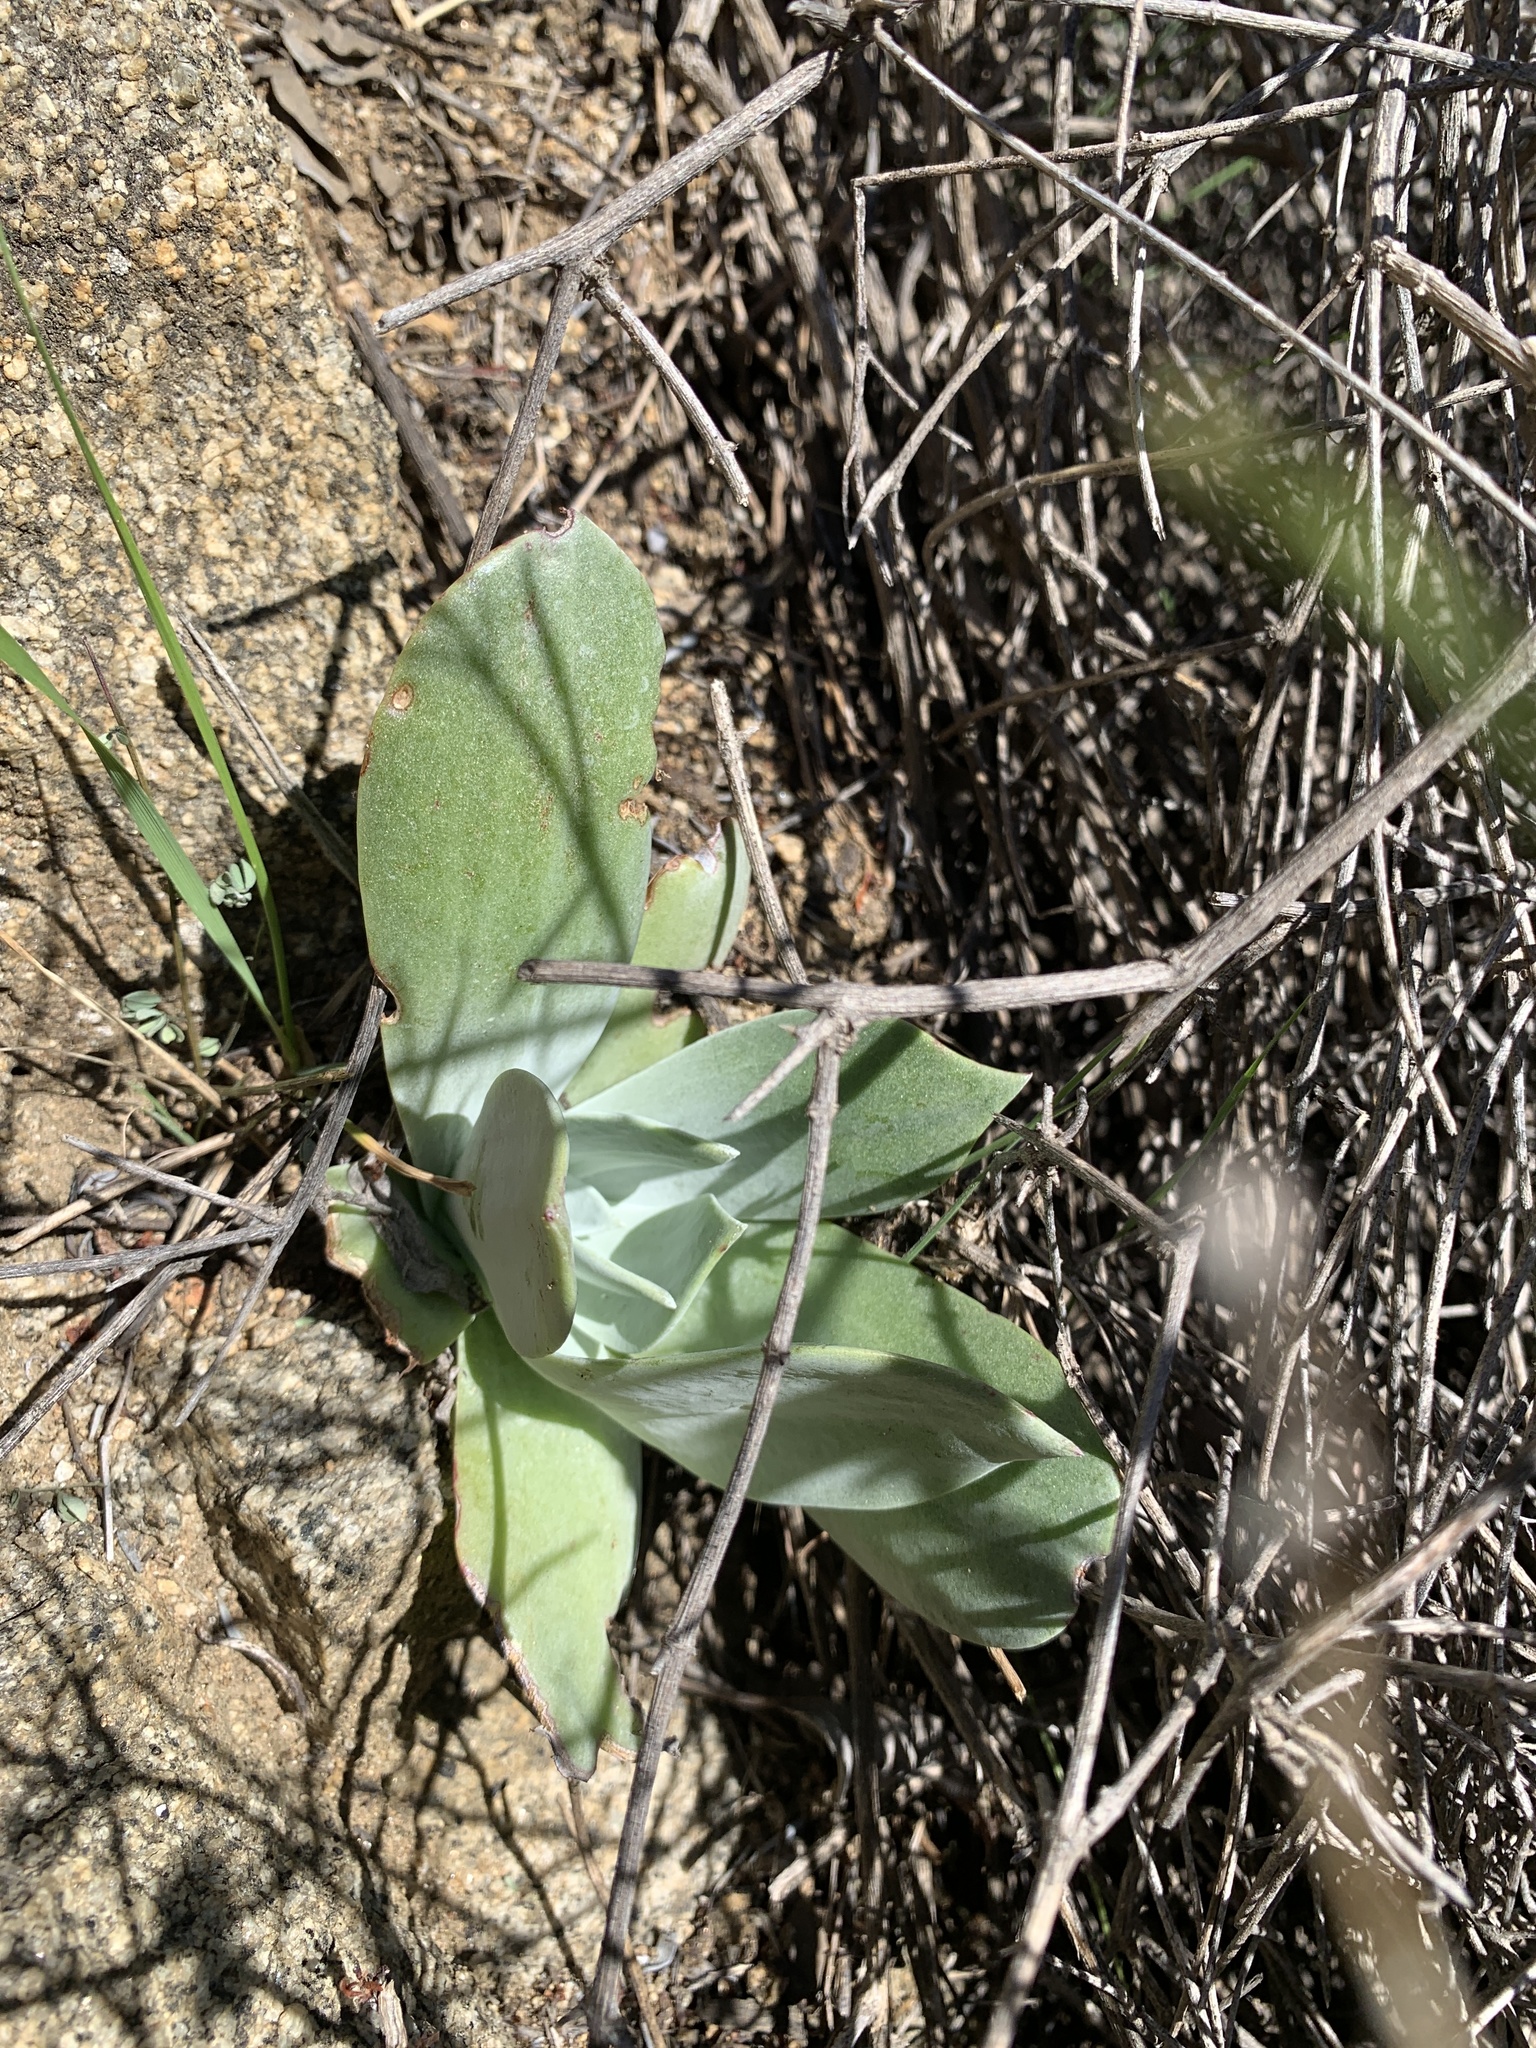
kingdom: Plantae
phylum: Tracheophyta
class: Magnoliopsida
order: Saxifragales
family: Crassulaceae
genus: Dudleya
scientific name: Dudleya pulverulenta
